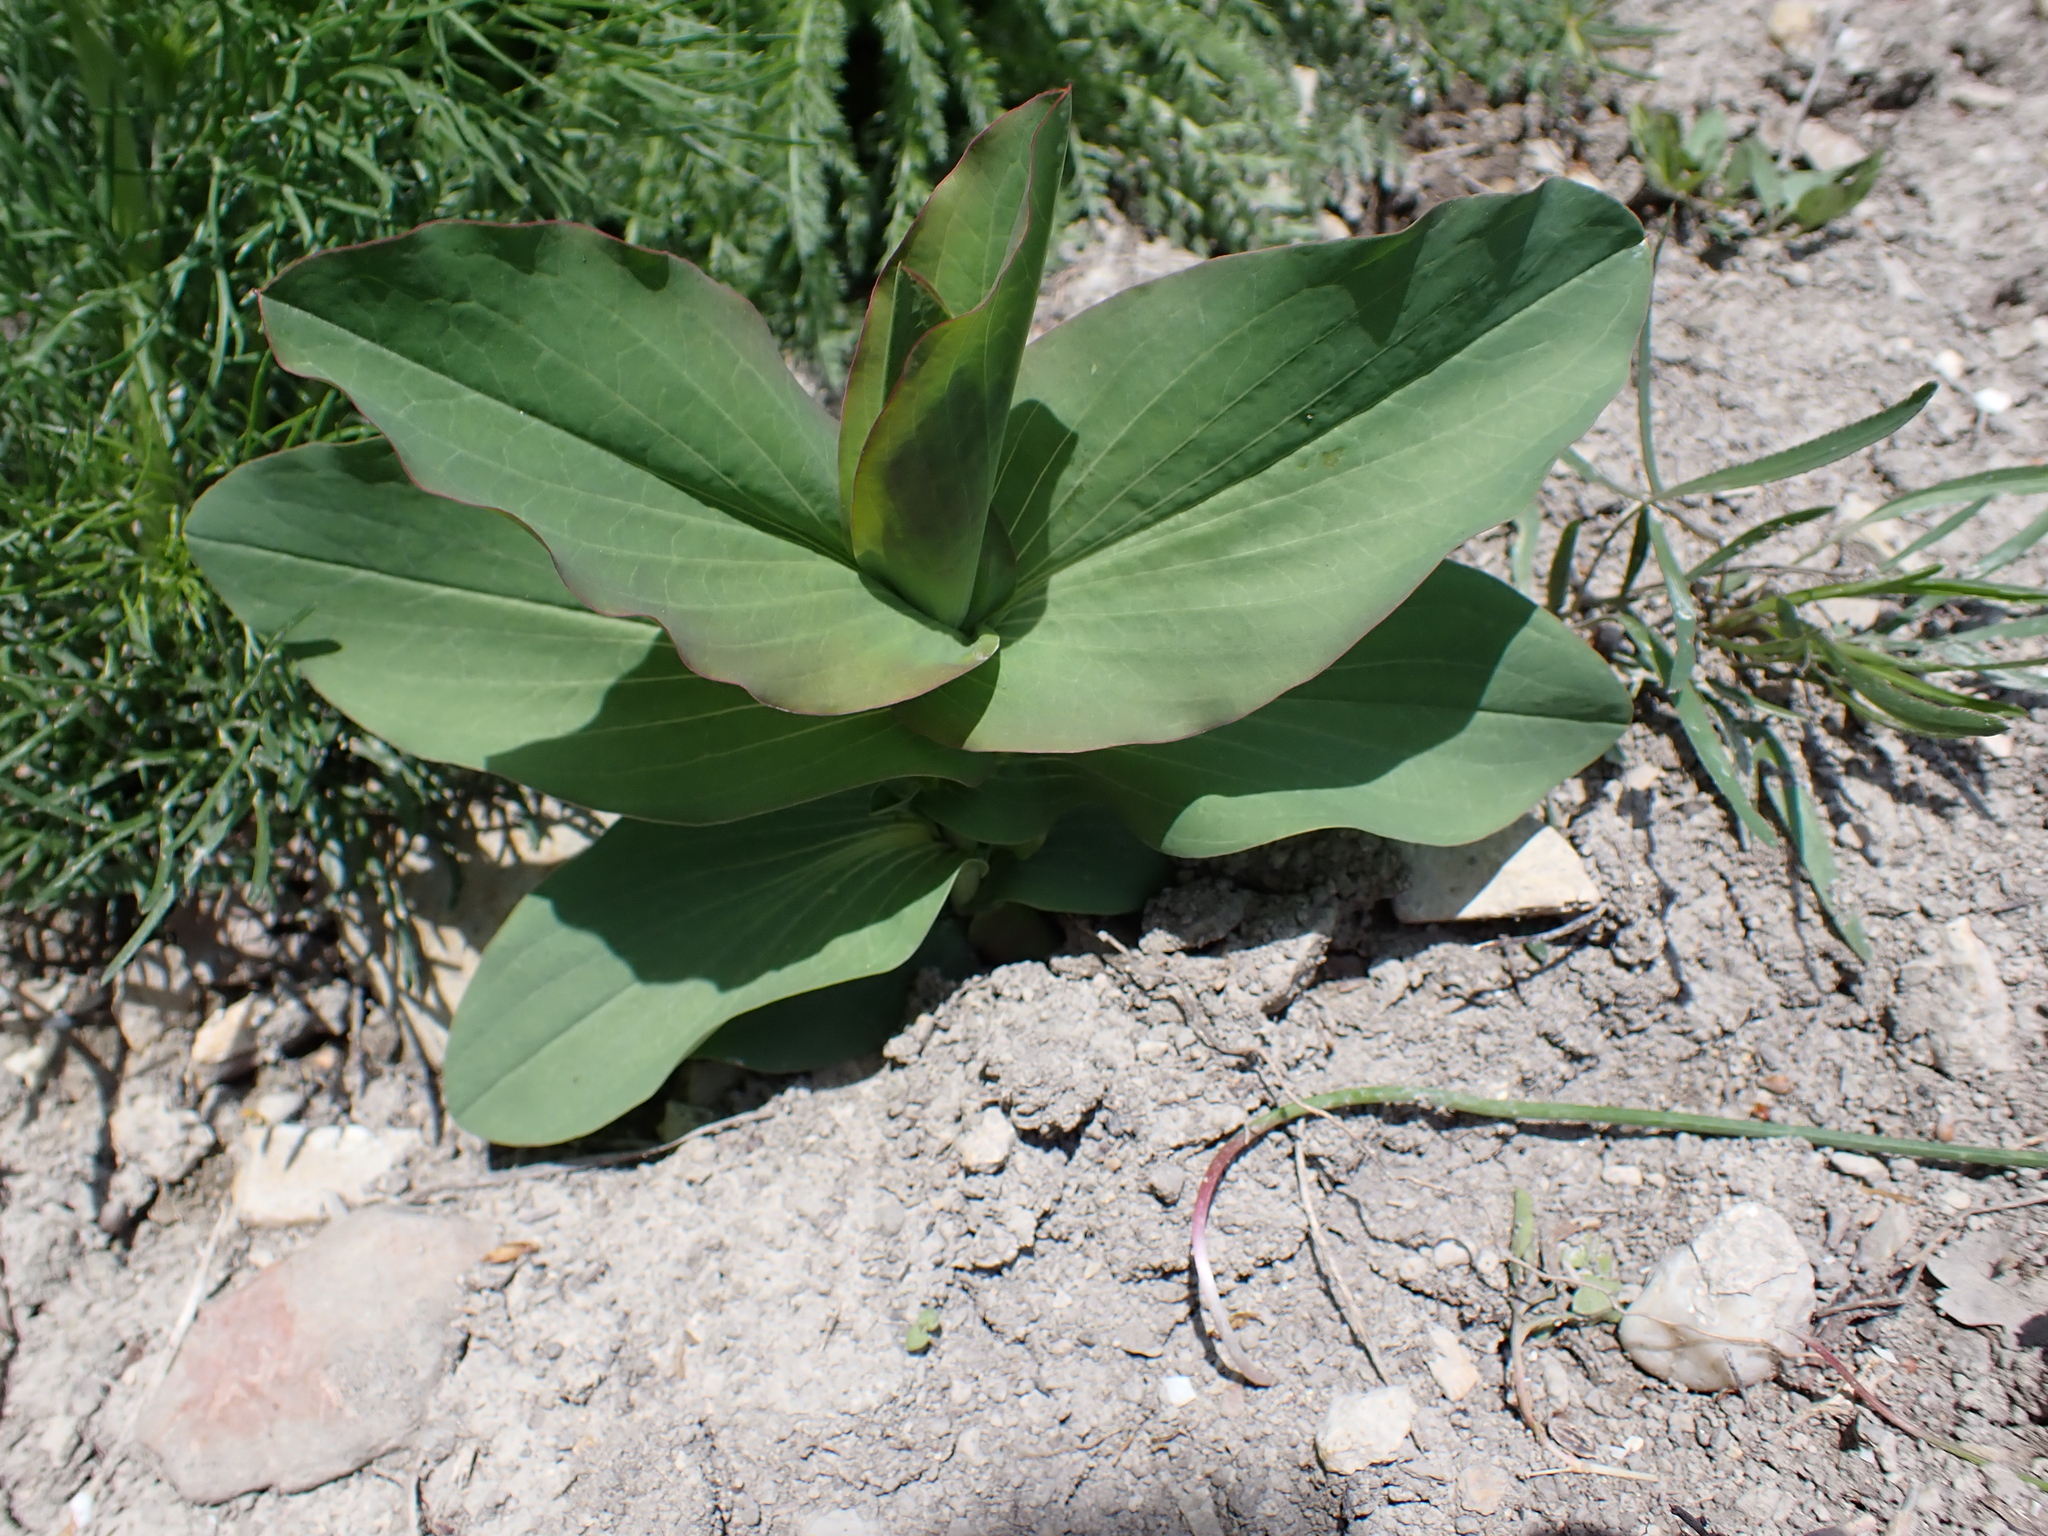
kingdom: Plantae
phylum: Tracheophyta
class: Magnoliopsida
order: Apiales
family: Apiaceae
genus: Bupleurum
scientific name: Bupleurum rotundifolium
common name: Thorow-wax
